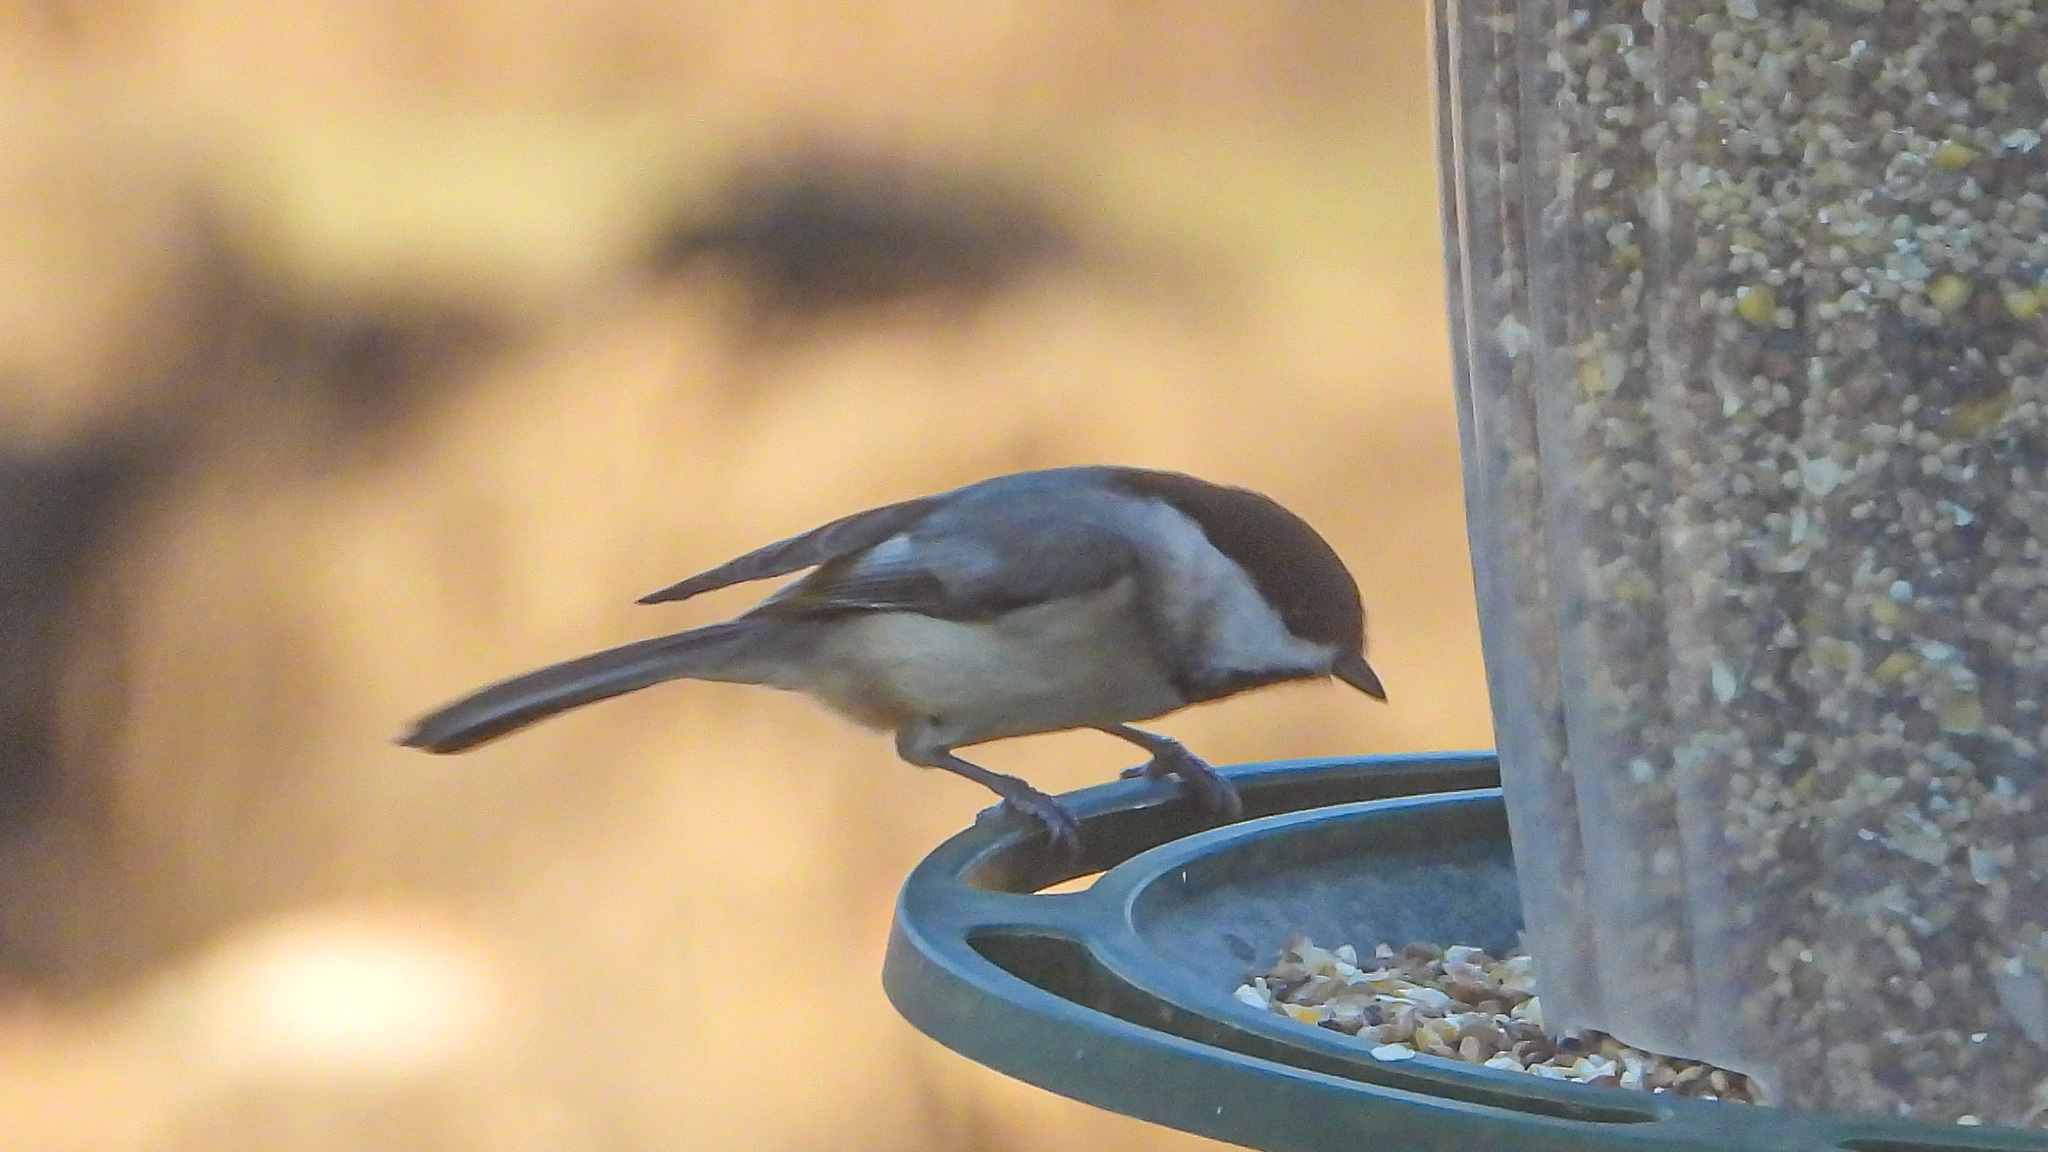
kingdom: Animalia
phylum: Chordata
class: Aves
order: Passeriformes
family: Paridae
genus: Poecile
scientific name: Poecile carolinensis
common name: Carolina chickadee
